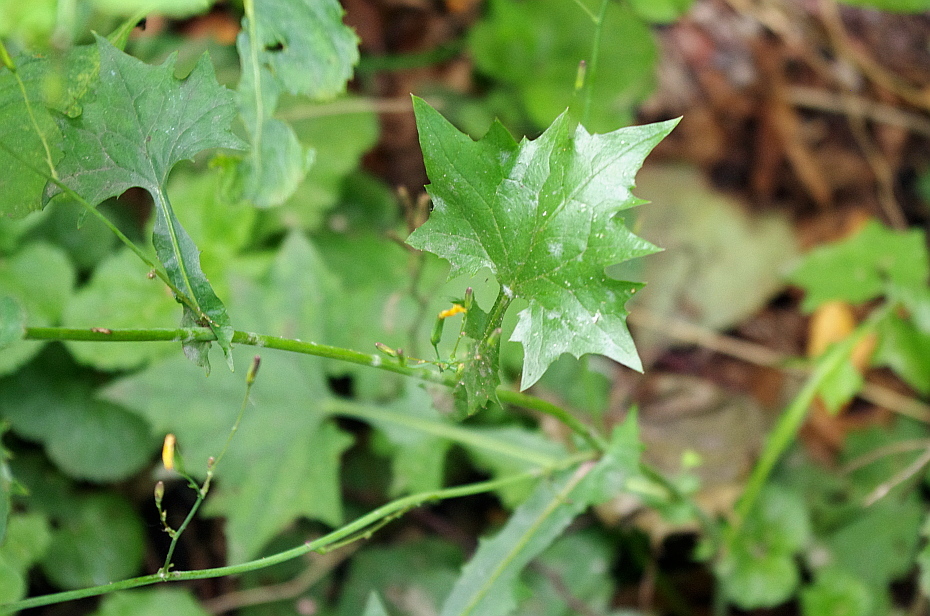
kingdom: Plantae
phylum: Tracheophyta
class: Magnoliopsida
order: Asterales
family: Asteraceae
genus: Mycelis
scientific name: Mycelis muralis
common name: Wall lettuce
